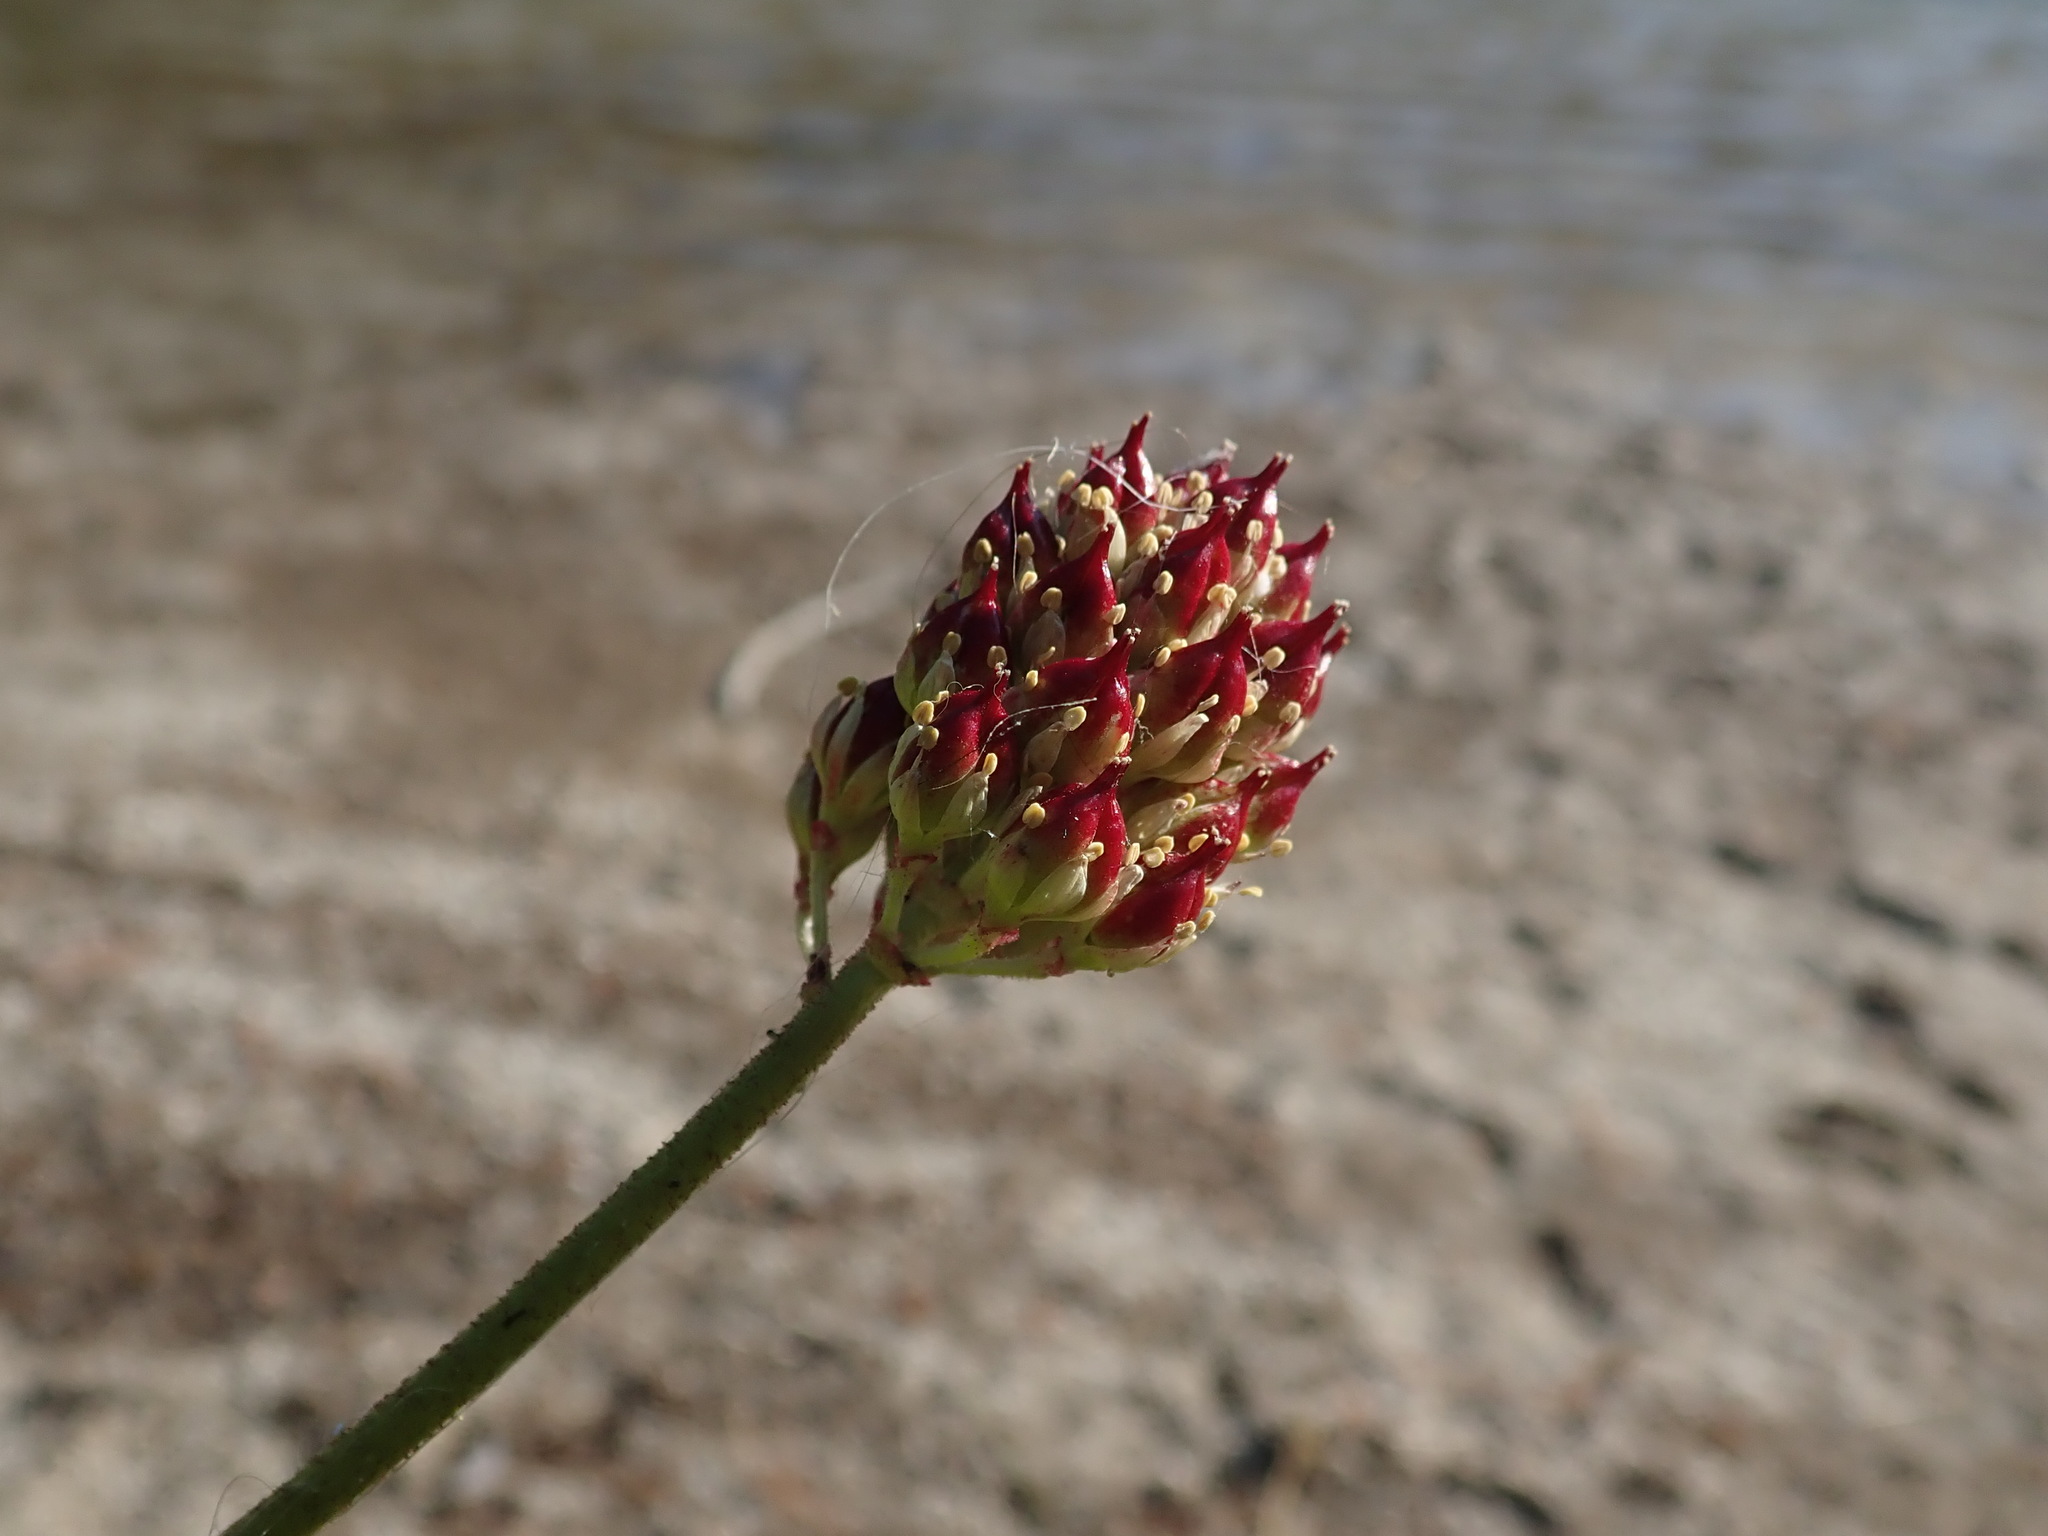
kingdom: Plantae
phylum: Tracheophyta
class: Liliopsida
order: Alismatales
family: Tofieldiaceae
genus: Triantha
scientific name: Triantha occidentalis
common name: Western false asphodel
